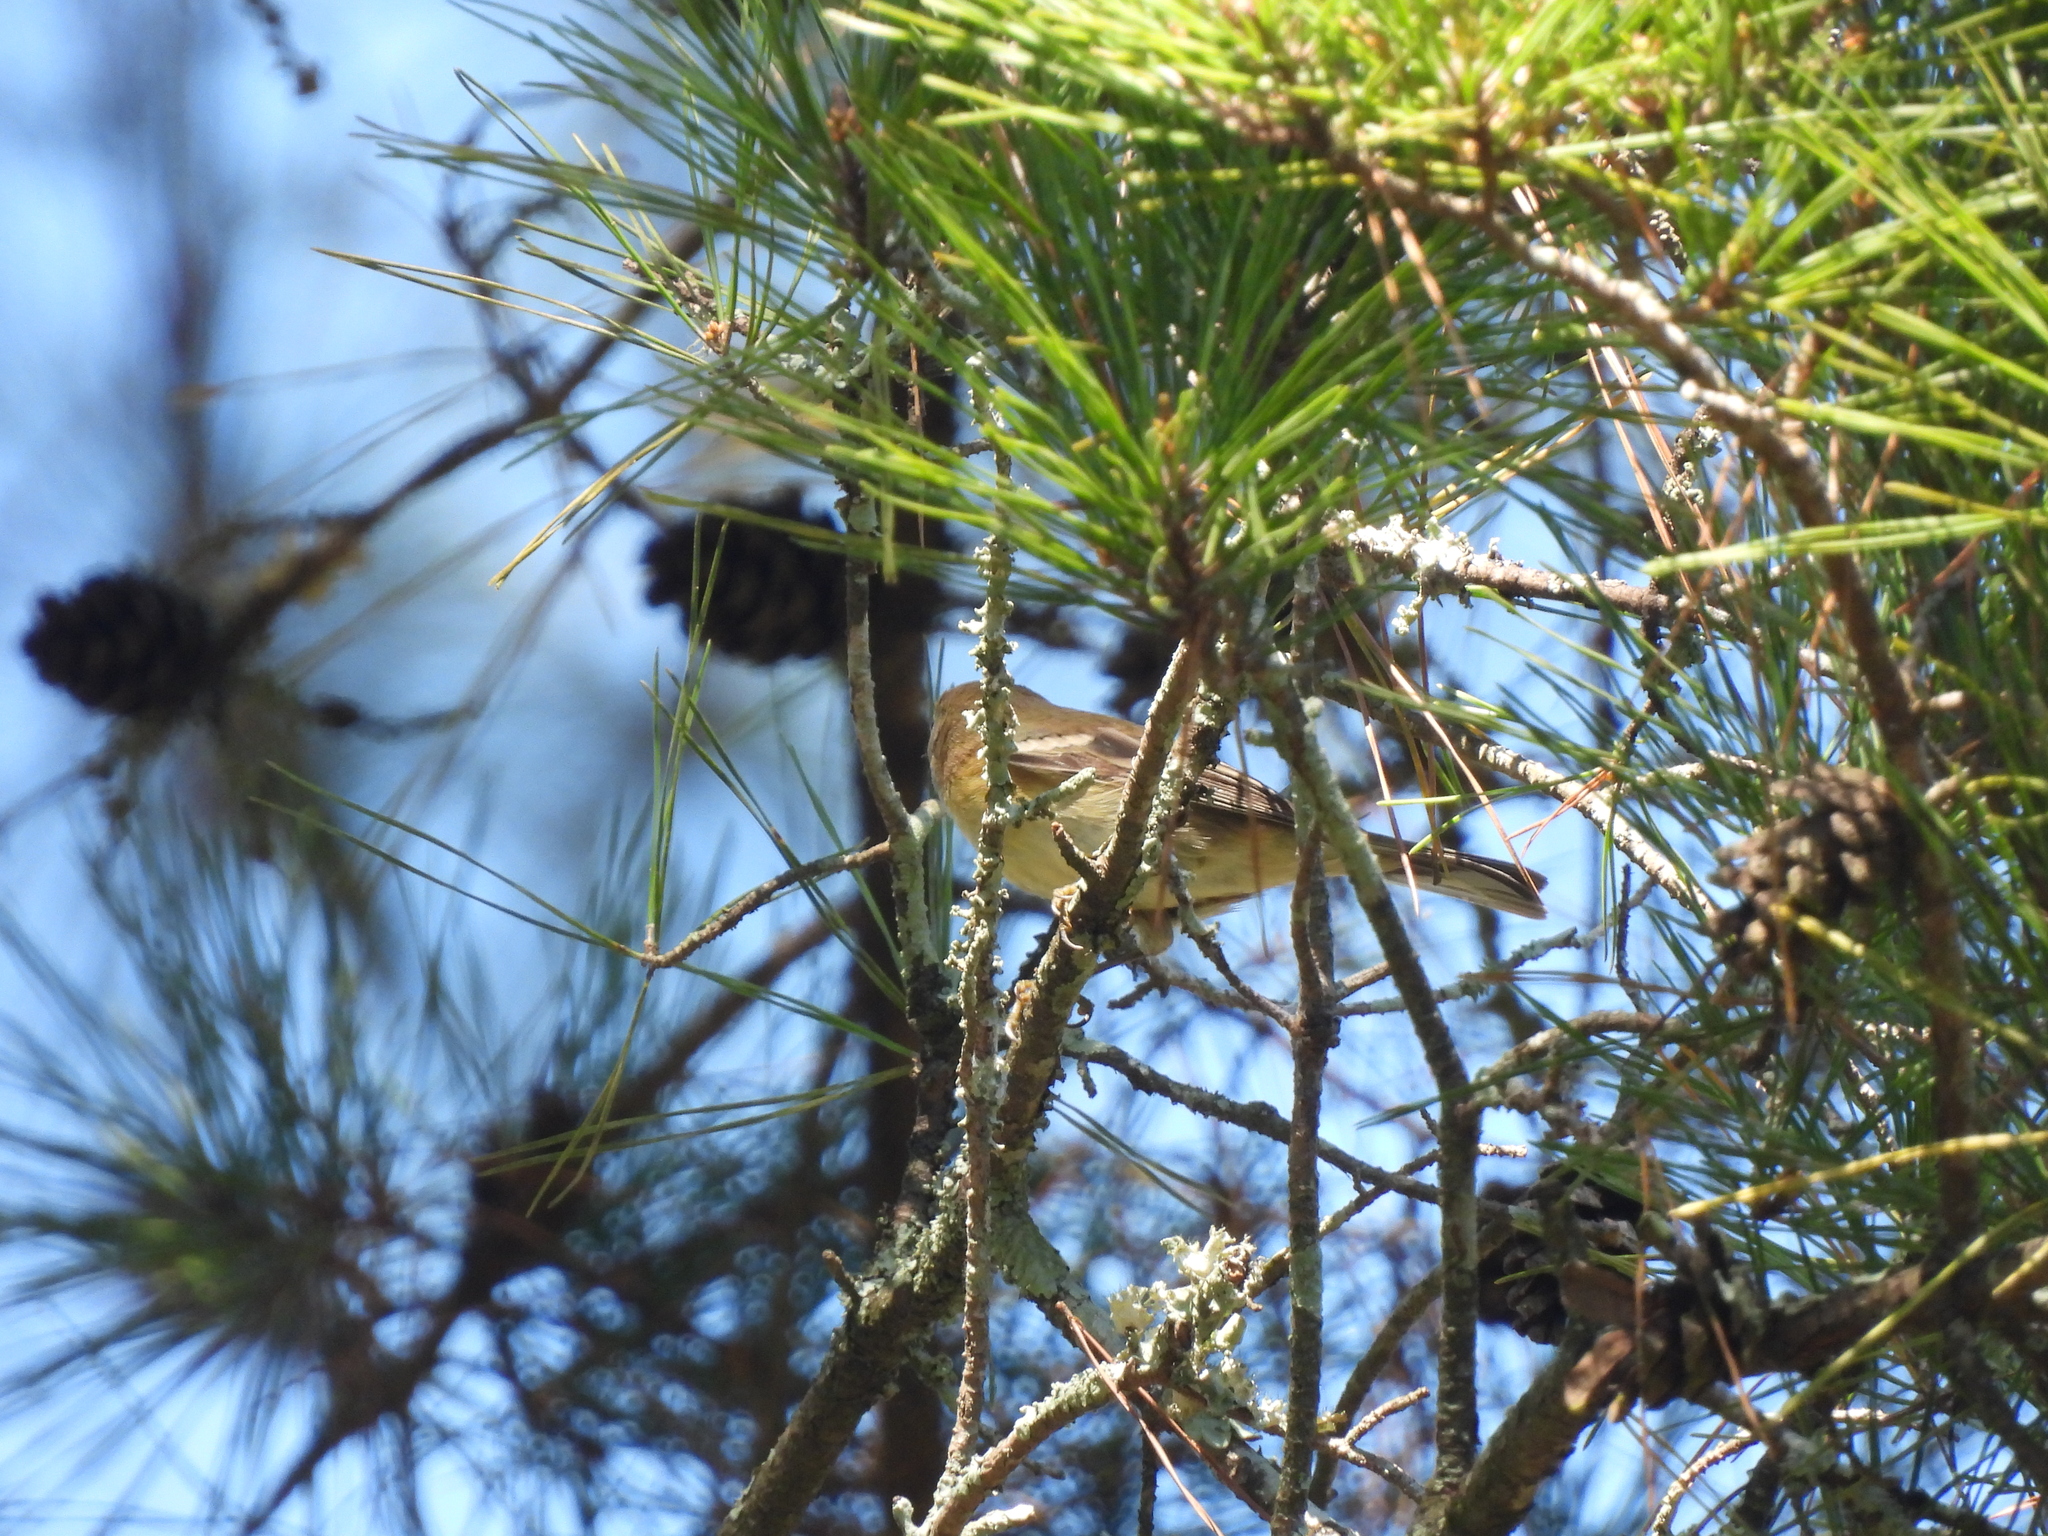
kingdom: Animalia
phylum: Chordata
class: Aves
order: Passeriformes
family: Parulidae
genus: Setophaga
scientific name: Setophaga pinus
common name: Pine warbler
